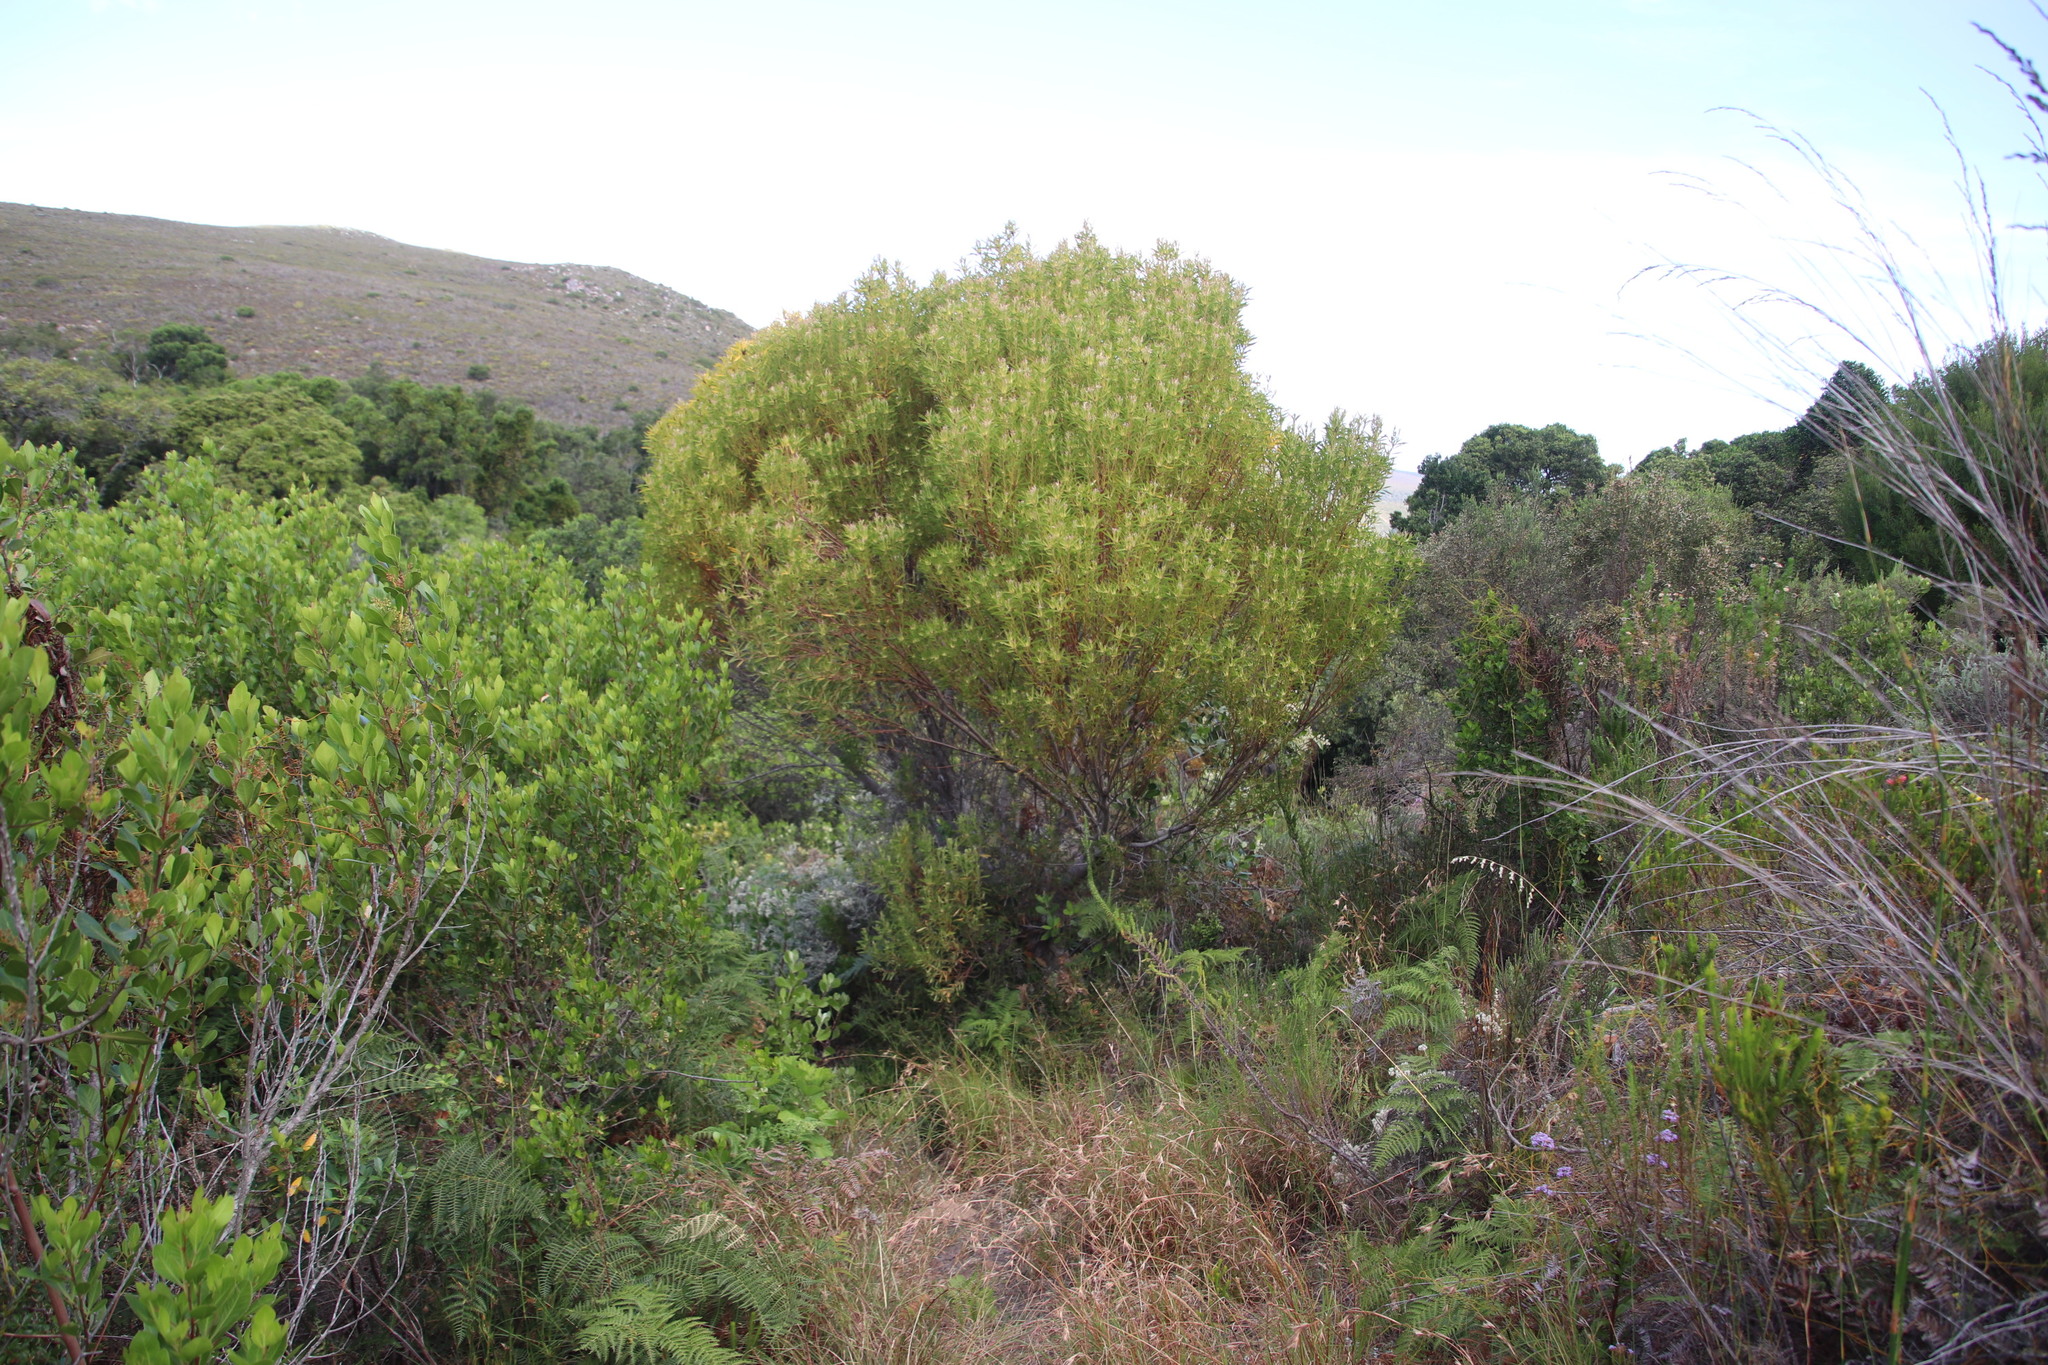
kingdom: Plantae
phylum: Tracheophyta
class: Magnoliopsida
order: Proteales
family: Proteaceae
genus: Leucadendron
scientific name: Leucadendron coniferum
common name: Dune conebush
